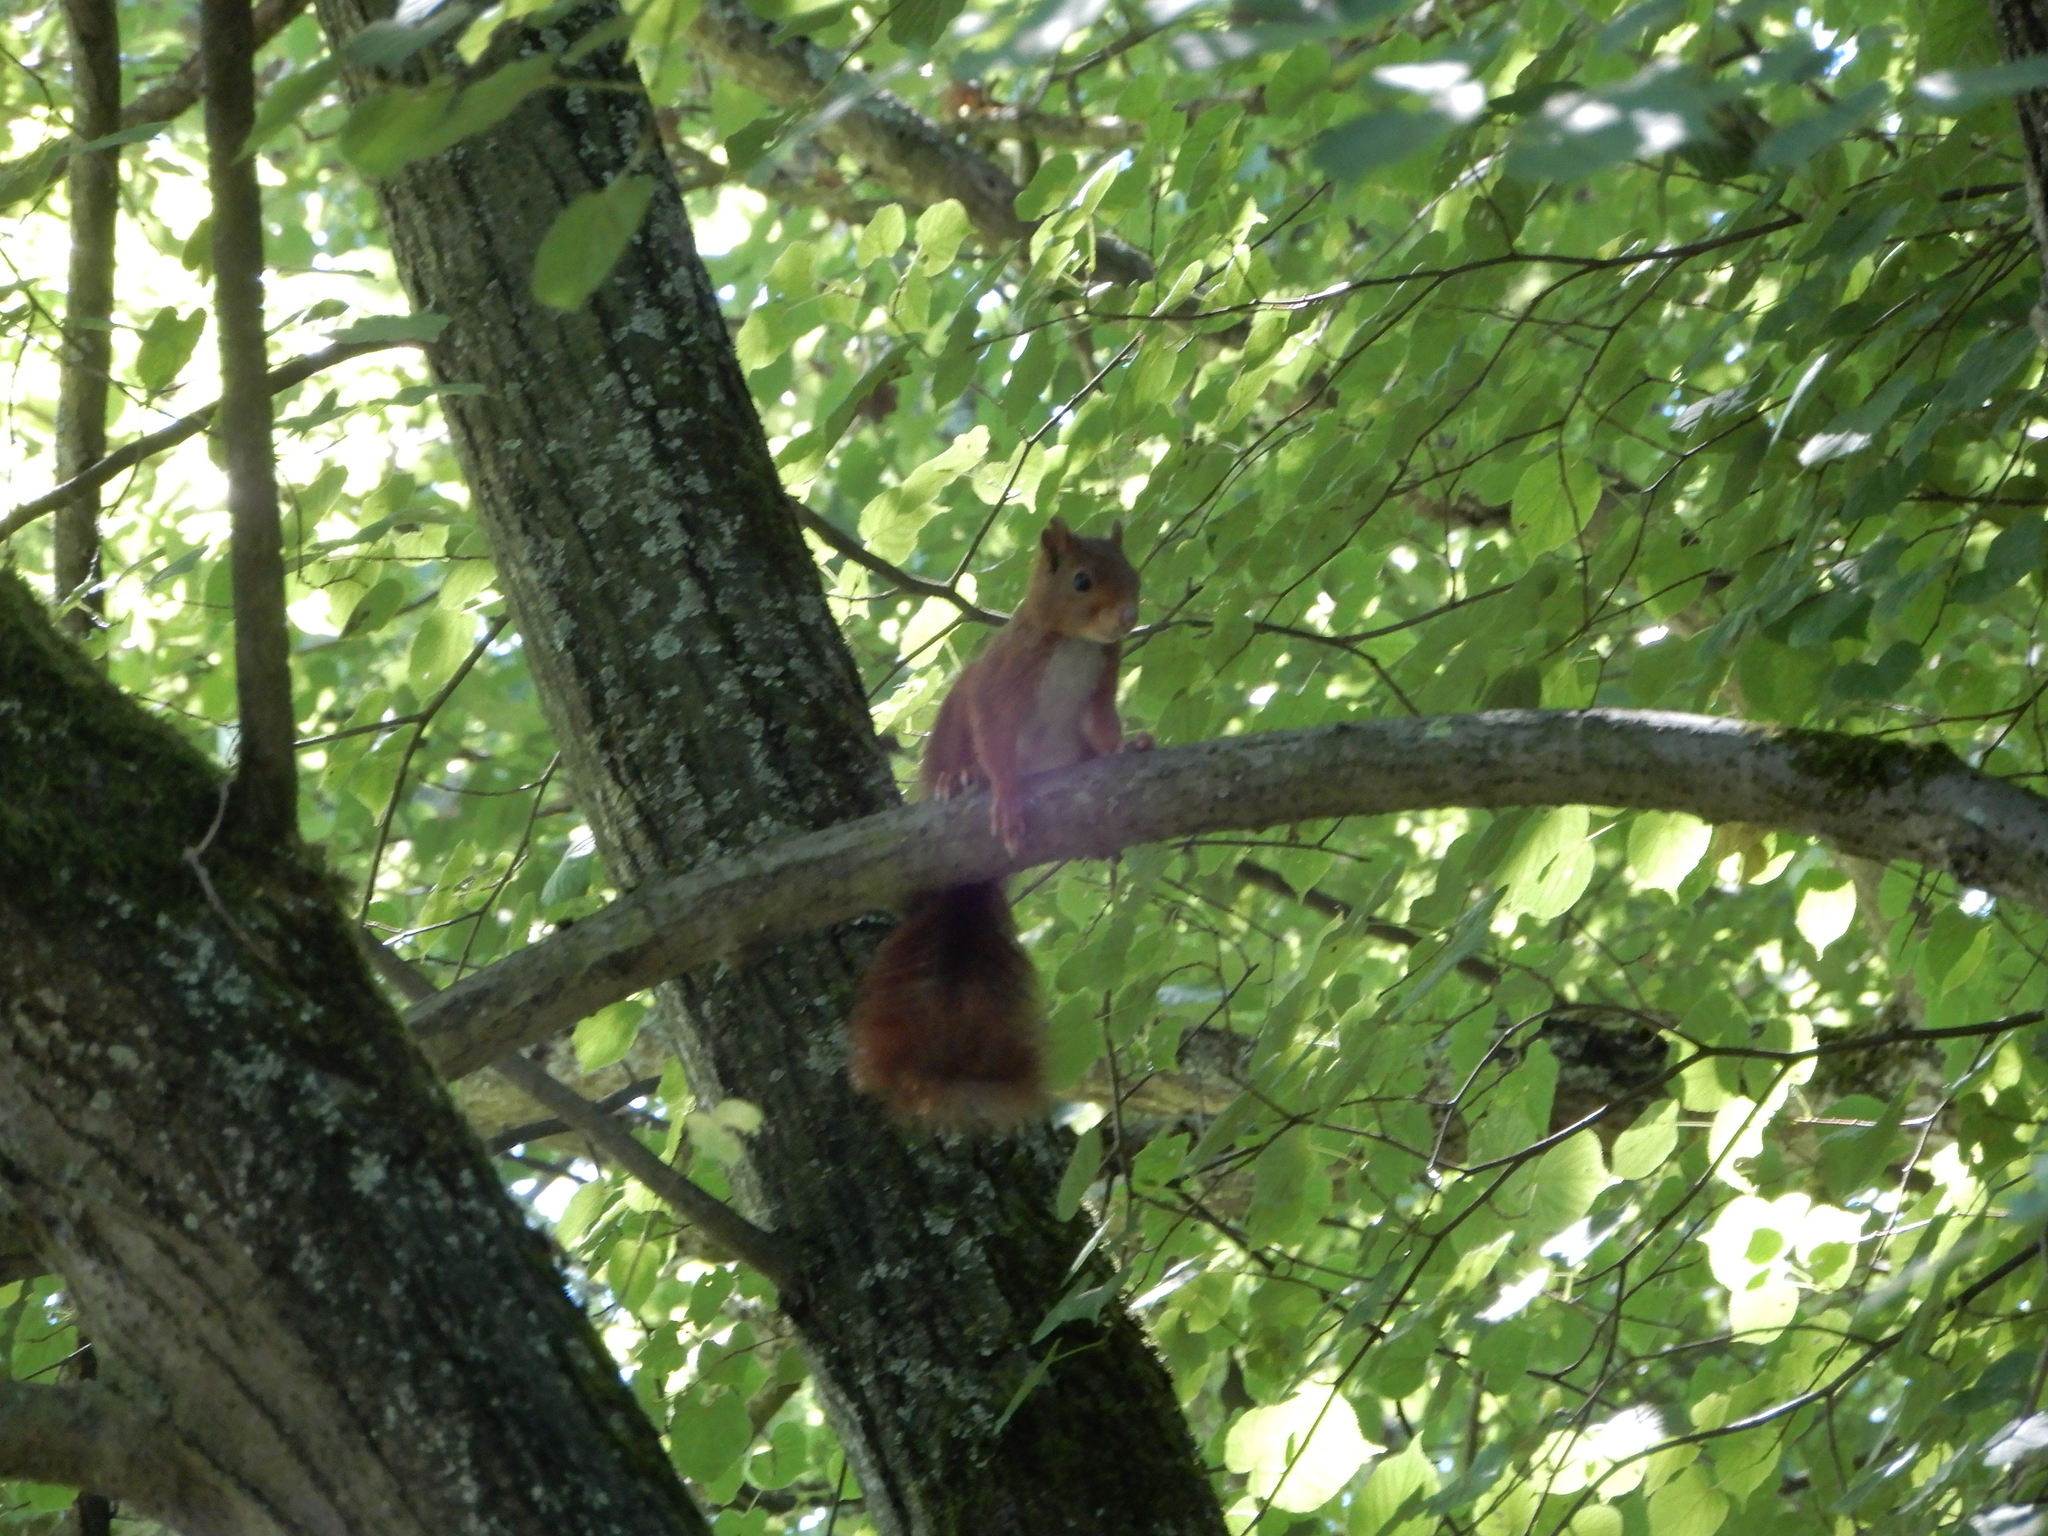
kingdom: Animalia
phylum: Chordata
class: Mammalia
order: Rodentia
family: Sciuridae
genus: Sciurus
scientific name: Sciurus vulgaris
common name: Eurasian red squirrel
